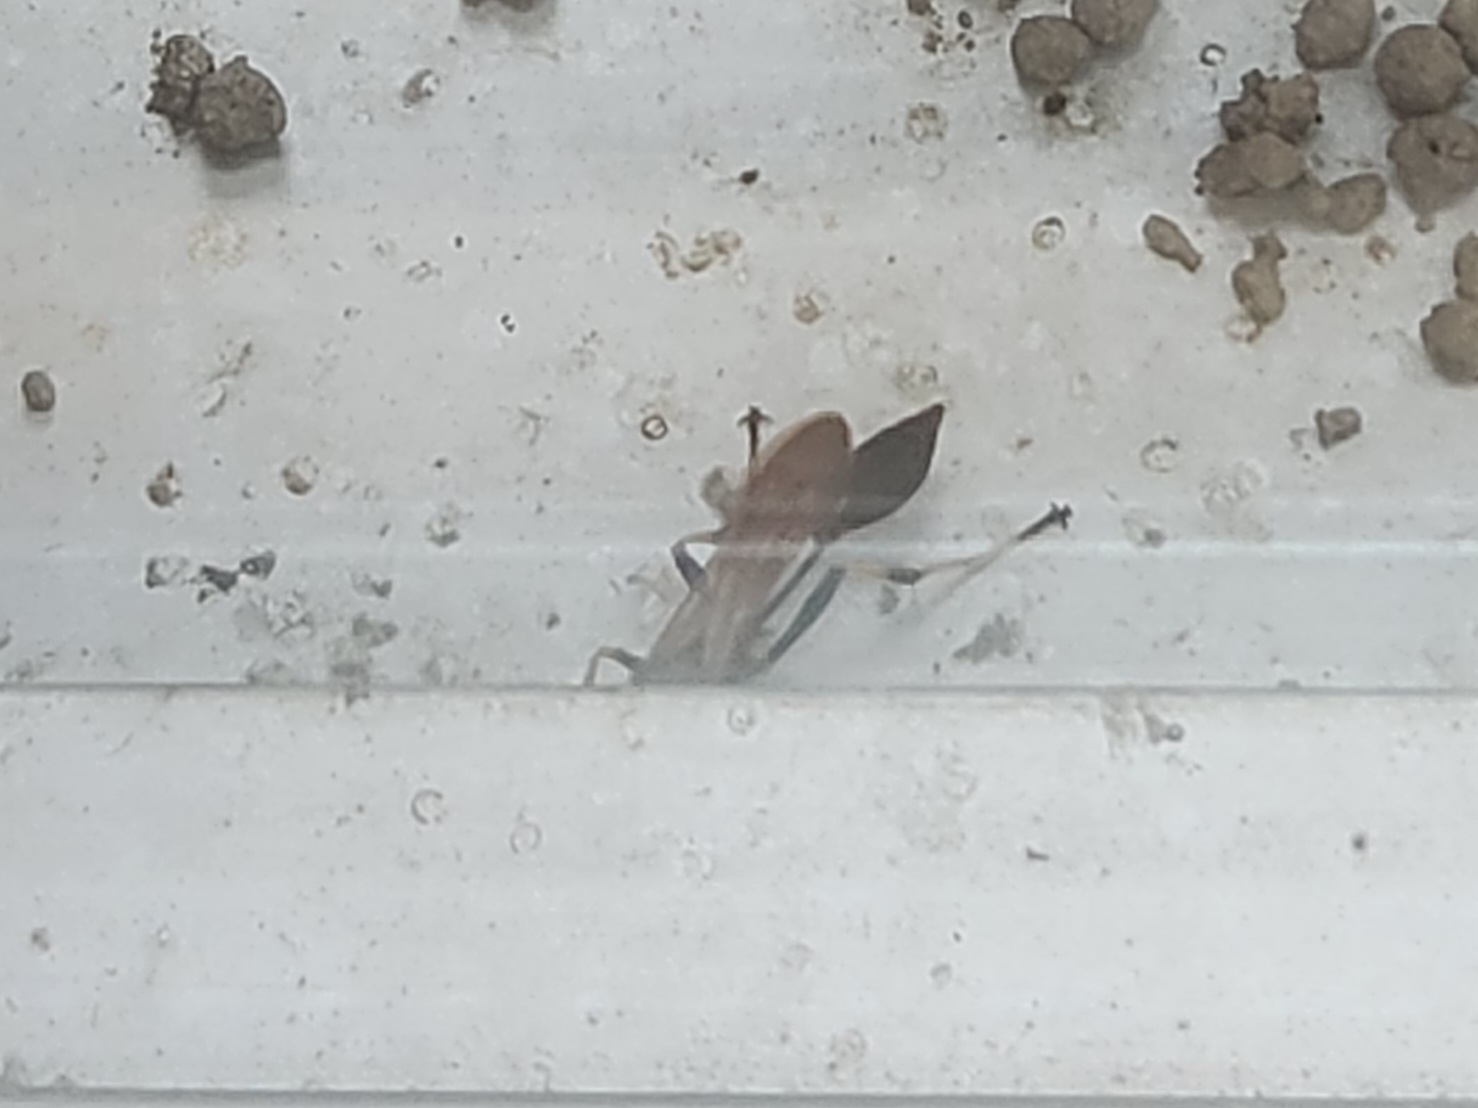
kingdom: Animalia
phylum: Arthropoda
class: Insecta
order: Hymenoptera
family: Sphecidae
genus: Sceliphron
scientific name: Sceliphron caementarium
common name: Mud dauber
